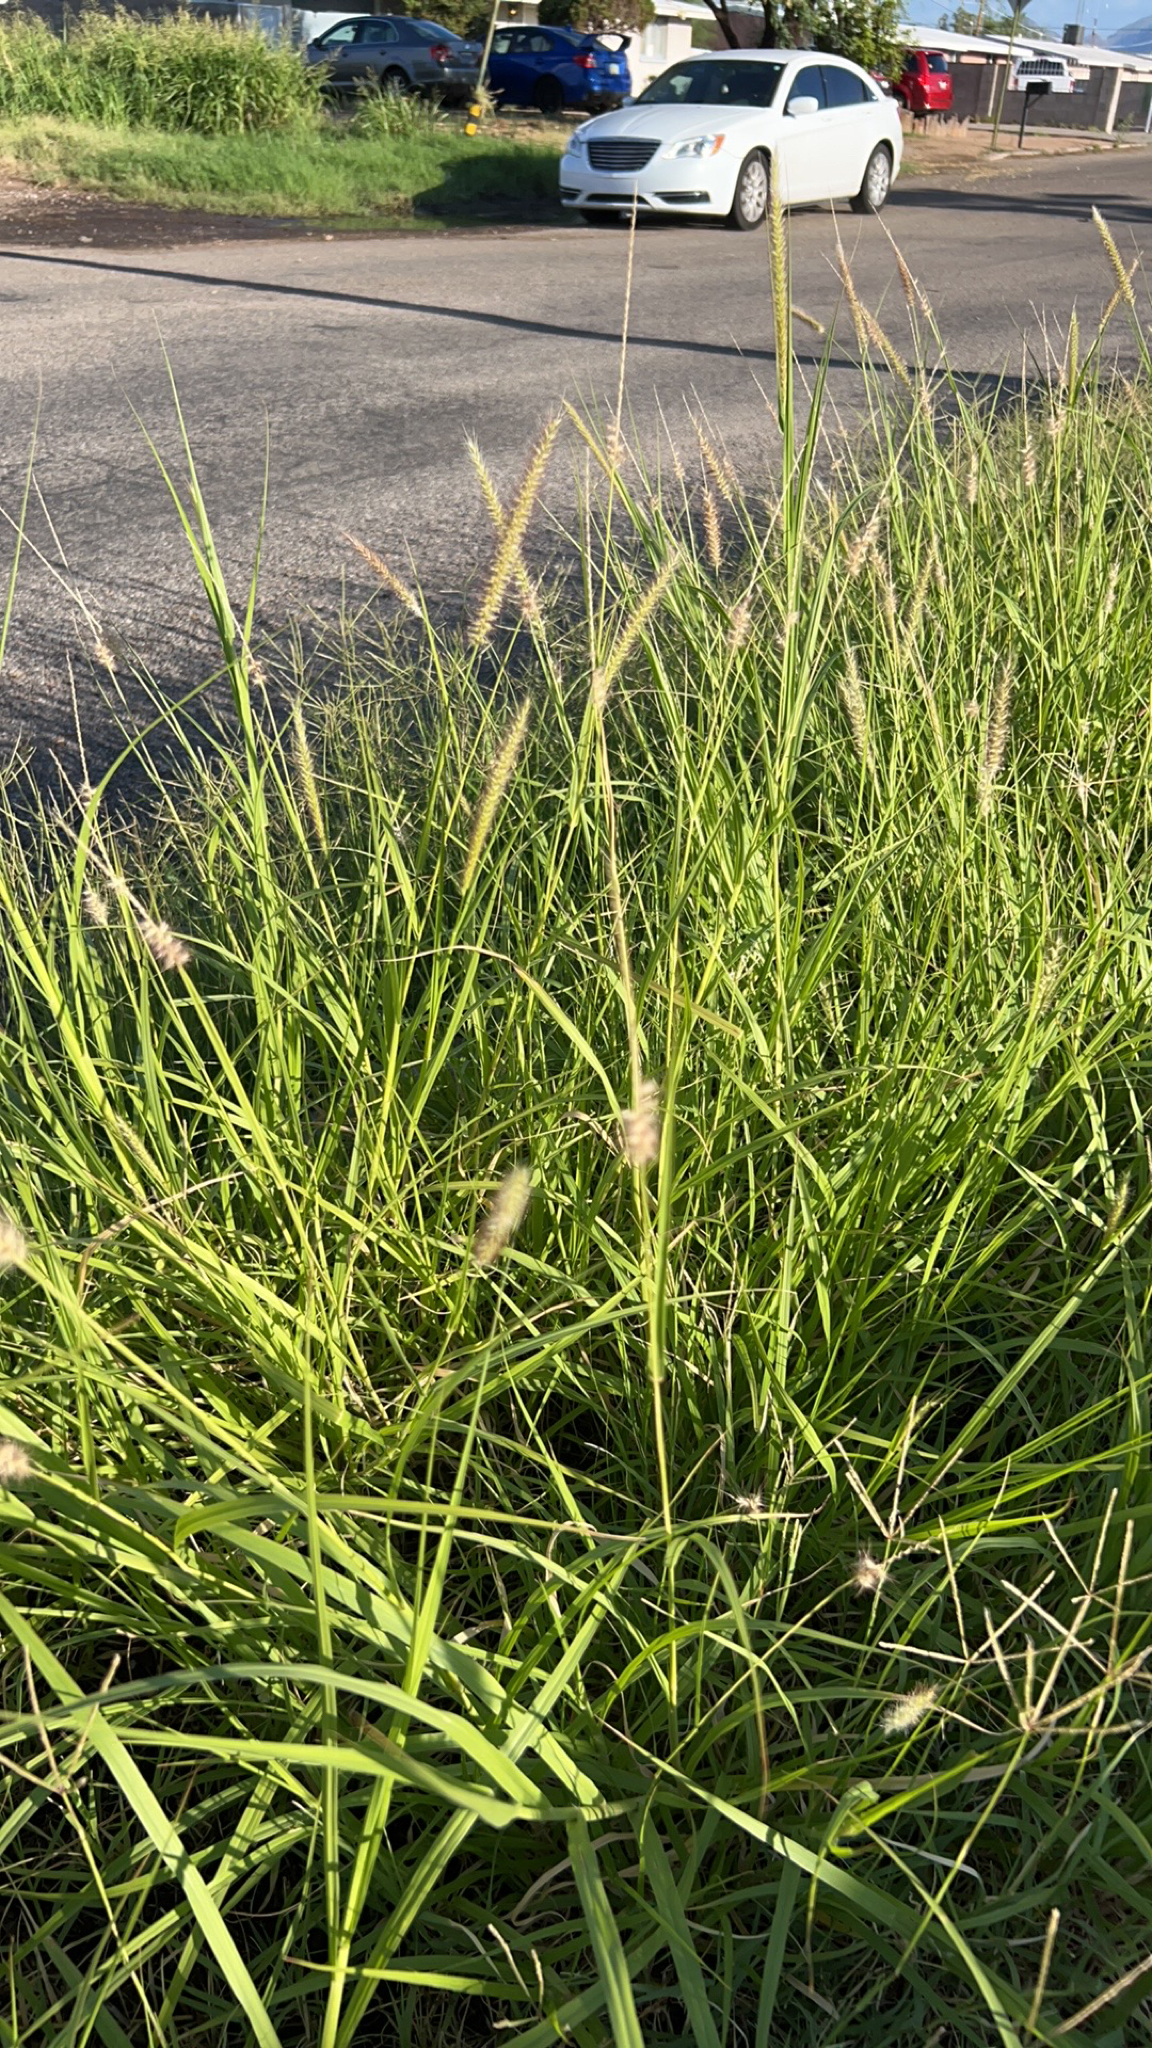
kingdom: Plantae
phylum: Tracheophyta
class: Liliopsida
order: Poales
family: Poaceae
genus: Cenchrus
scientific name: Cenchrus ciliaris
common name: Buffelgrass
